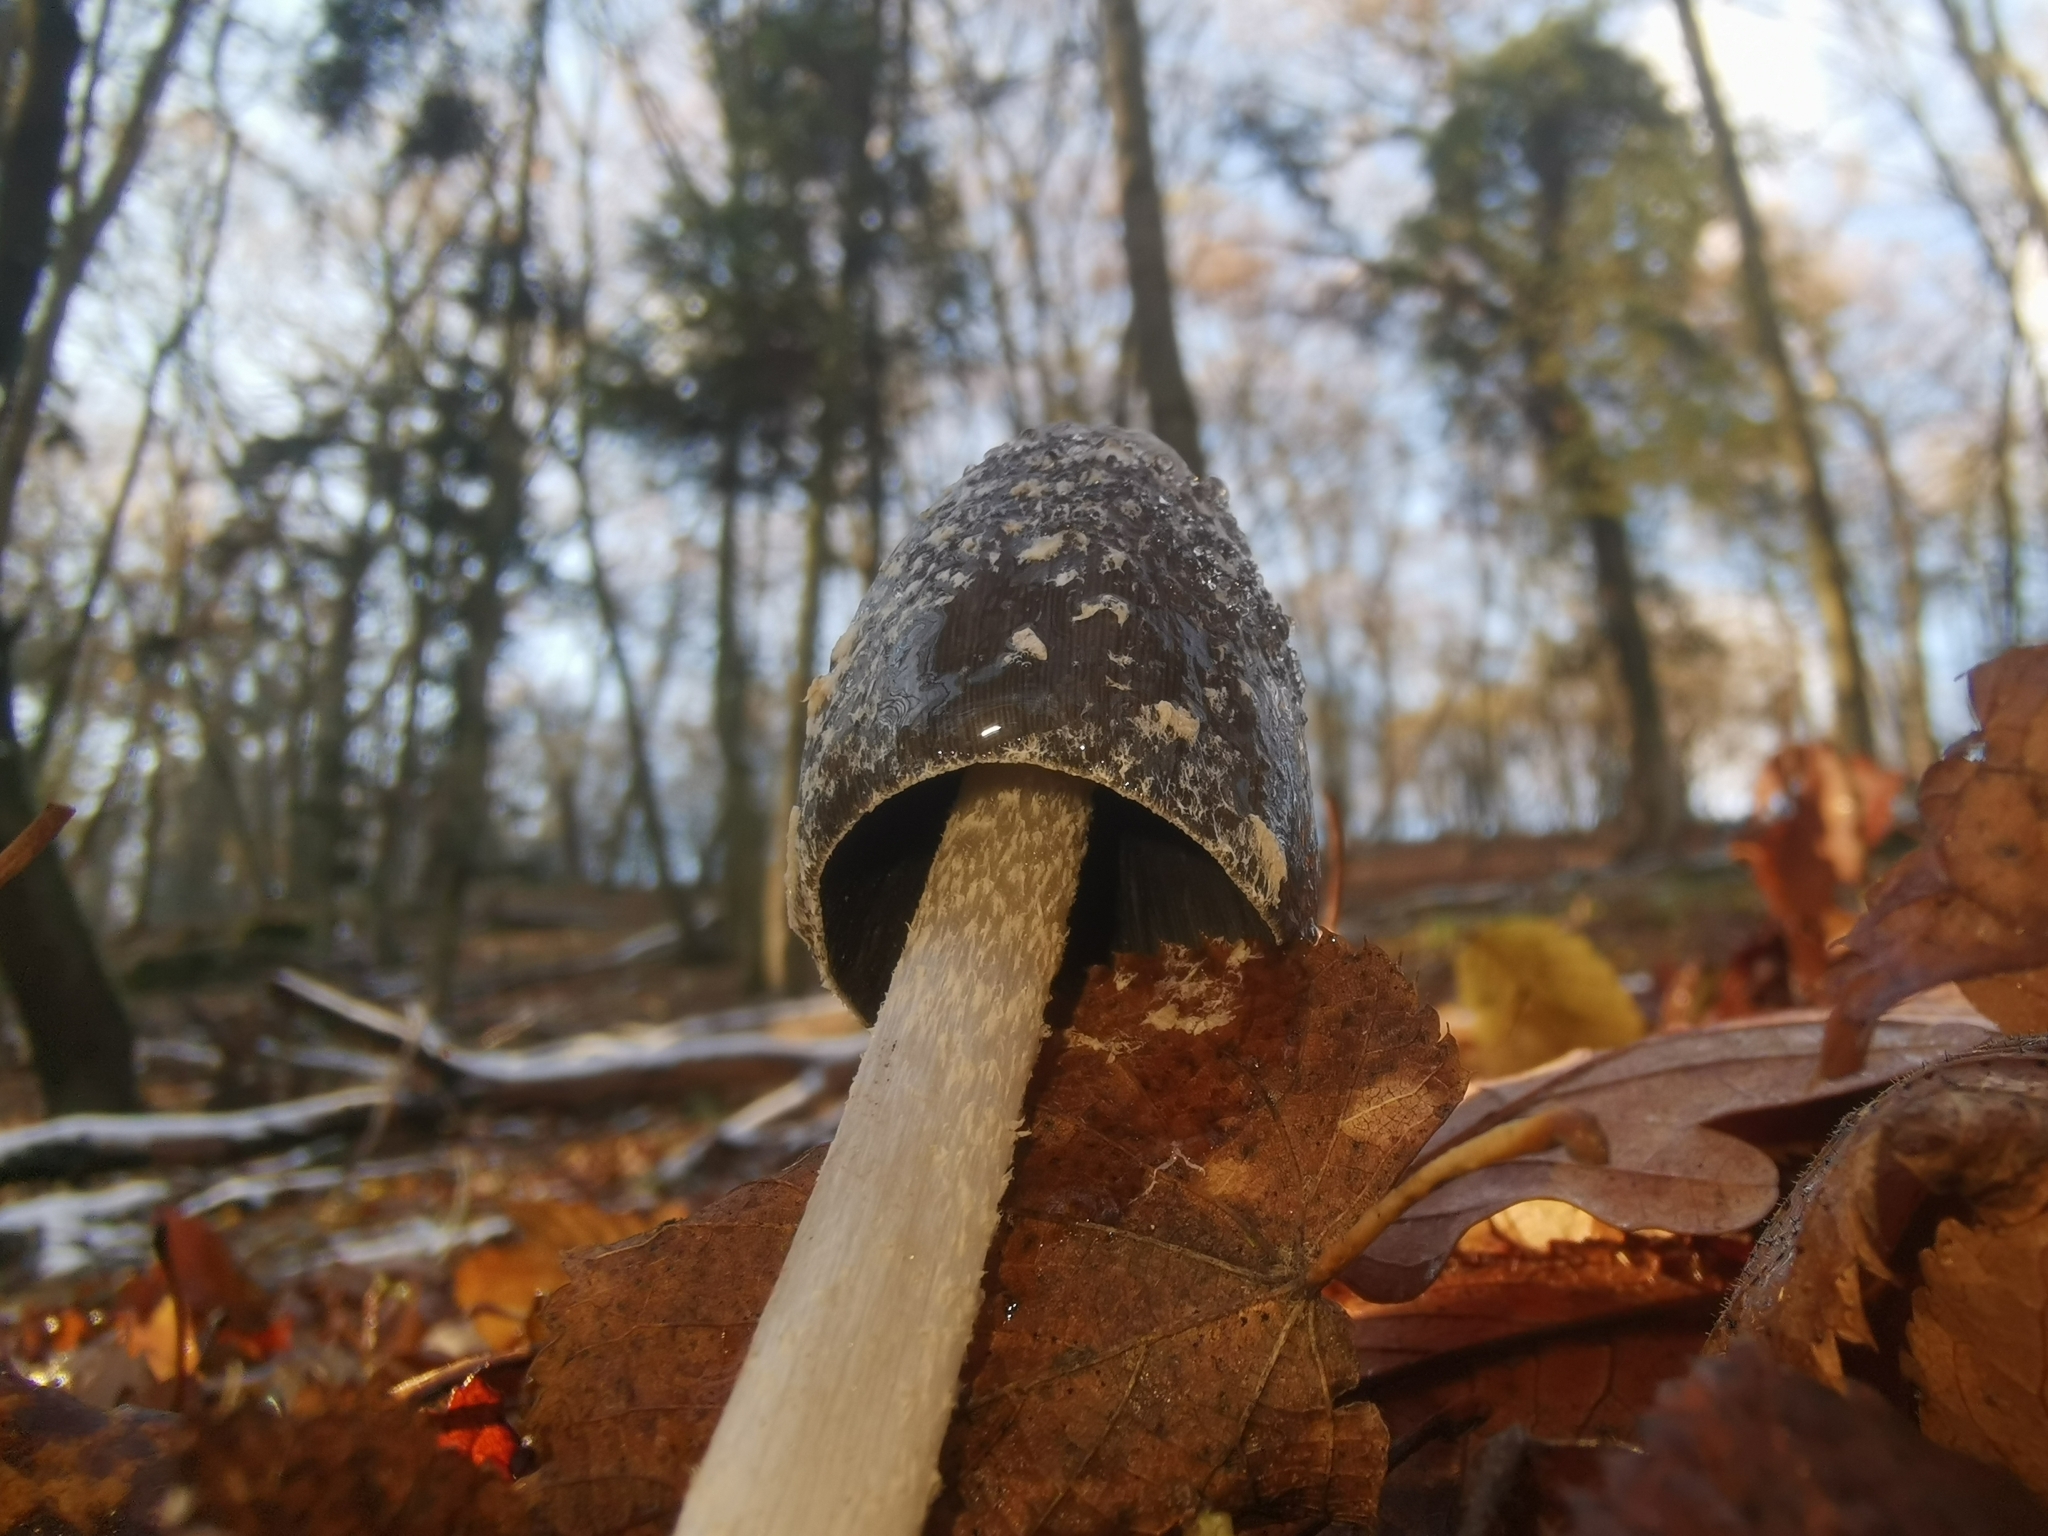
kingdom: Fungi
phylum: Basidiomycota
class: Agaricomycetes
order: Agaricales
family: Psathyrellaceae
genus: Coprinopsis
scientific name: Coprinopsis picacea
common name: Magpie inkcap
